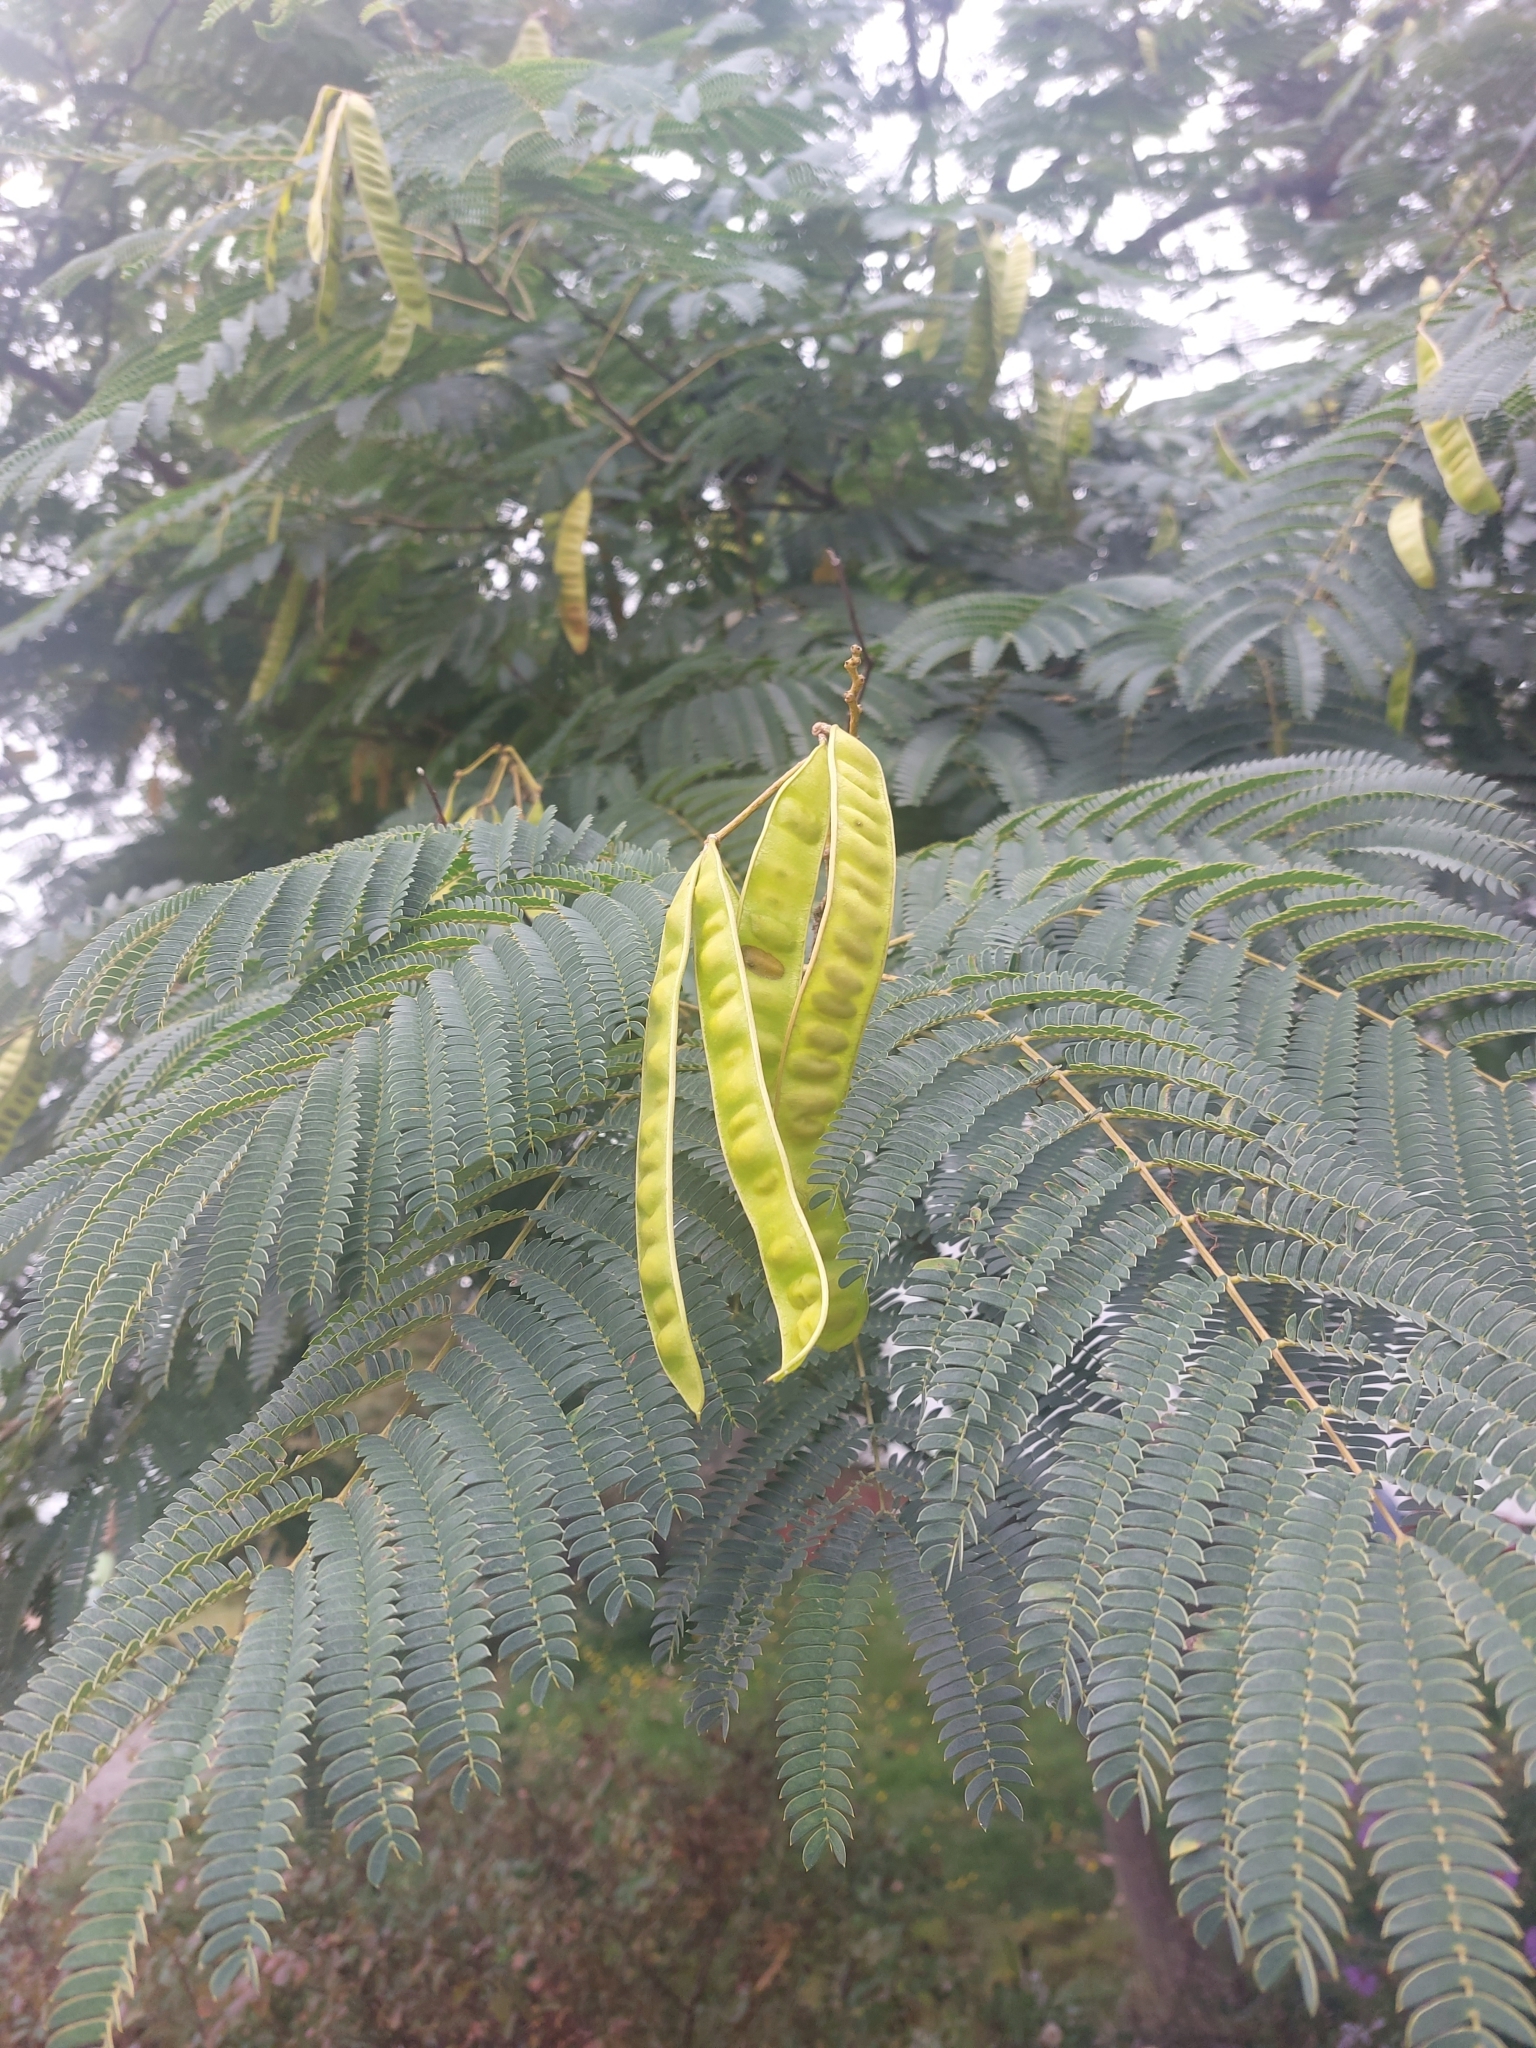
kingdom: Plantae
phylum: Tracheophyta
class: Magnoliopsida
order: Fabales
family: Fabaceae
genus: Albizia
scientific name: Albizia julibrissin
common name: Silktree
